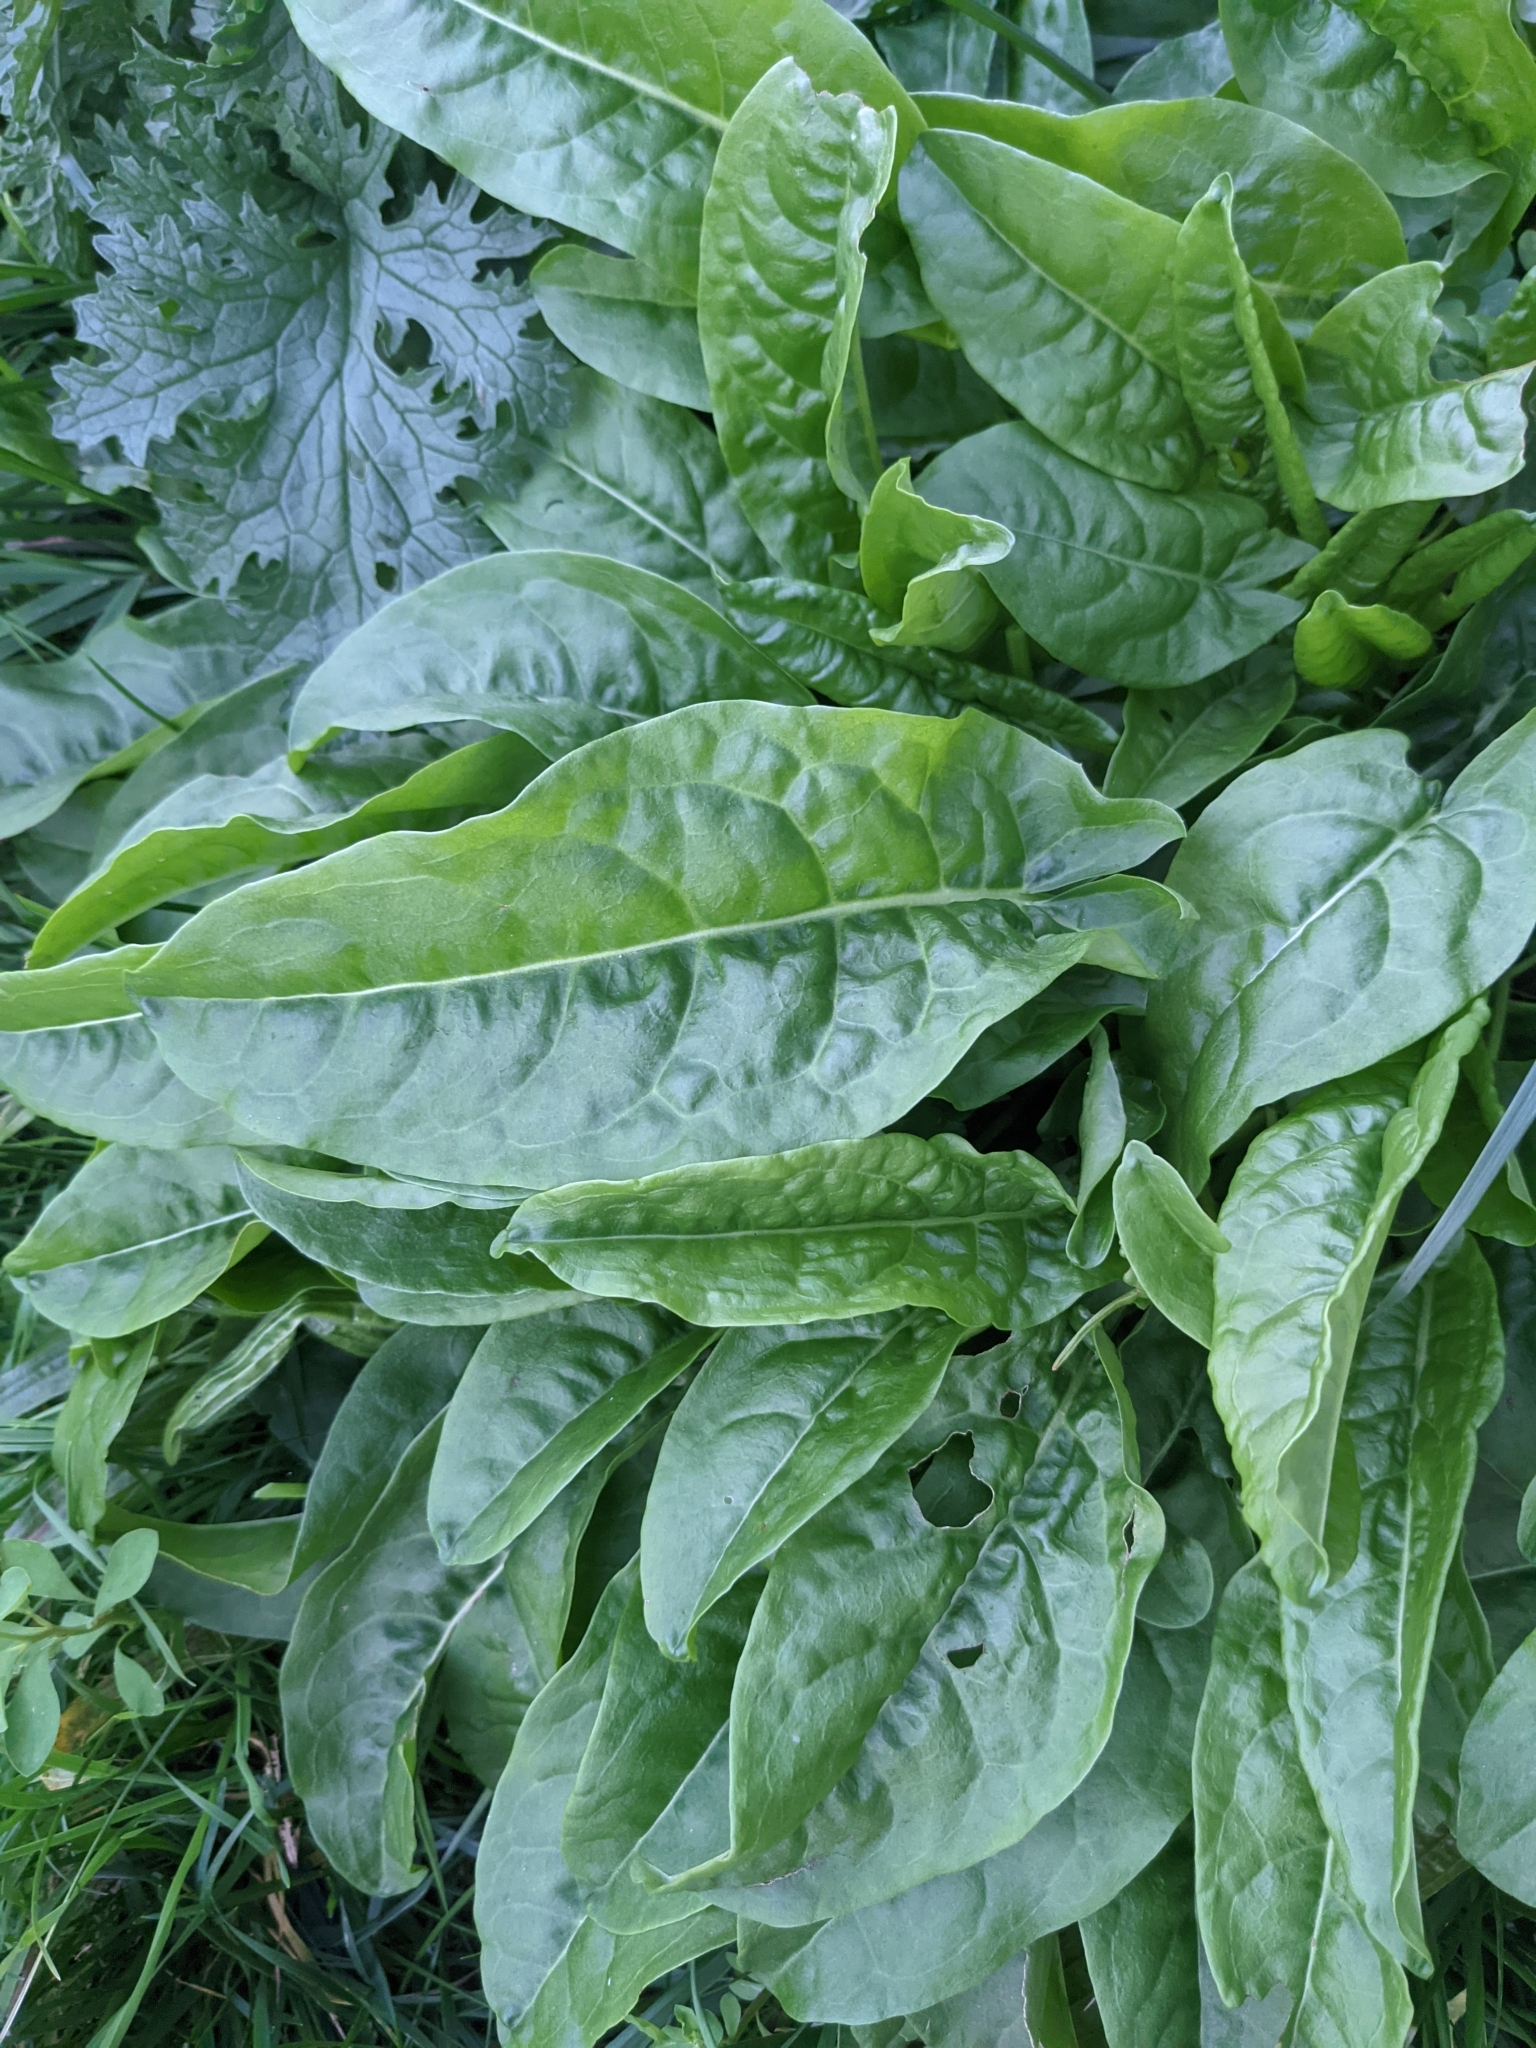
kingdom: Plantae
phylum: Tracheophyta
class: Magnoliopsida
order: Caryophyllales
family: Polygonaceae
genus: Rumex
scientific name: Rumex acetosa
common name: Garden sorrel
